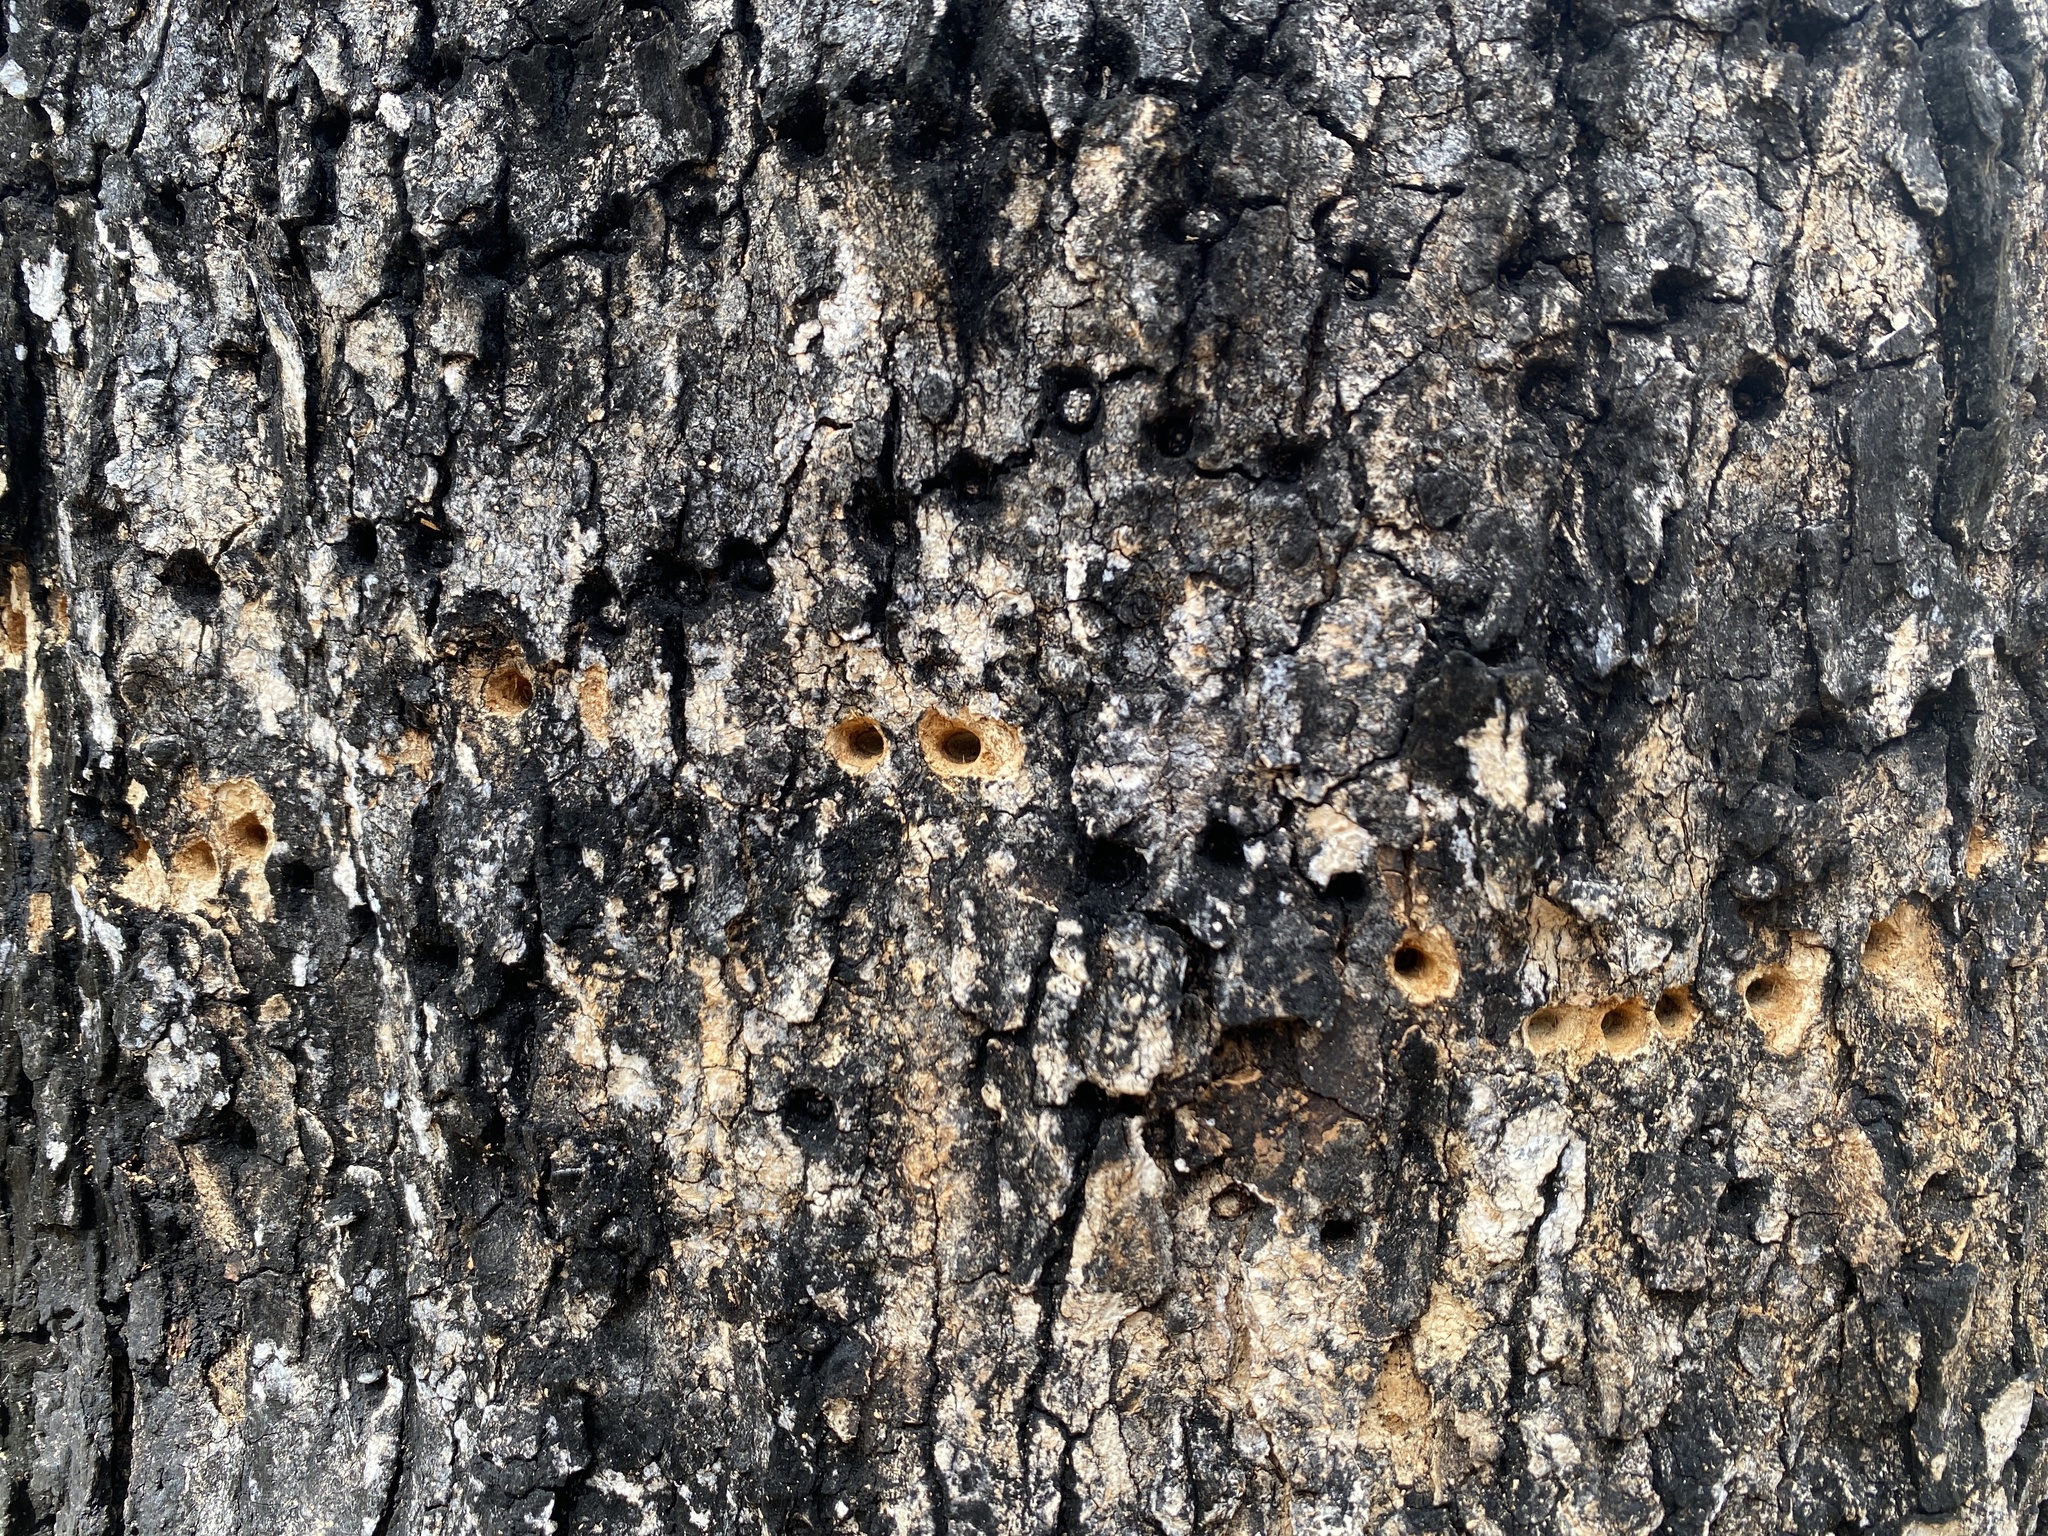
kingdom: Animalia
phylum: Chordata
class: Aves
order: Piciformes
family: Picidae
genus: Sphyrapicus
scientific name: Sphyrapicus varius
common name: Yellow-bellied sapsucker
